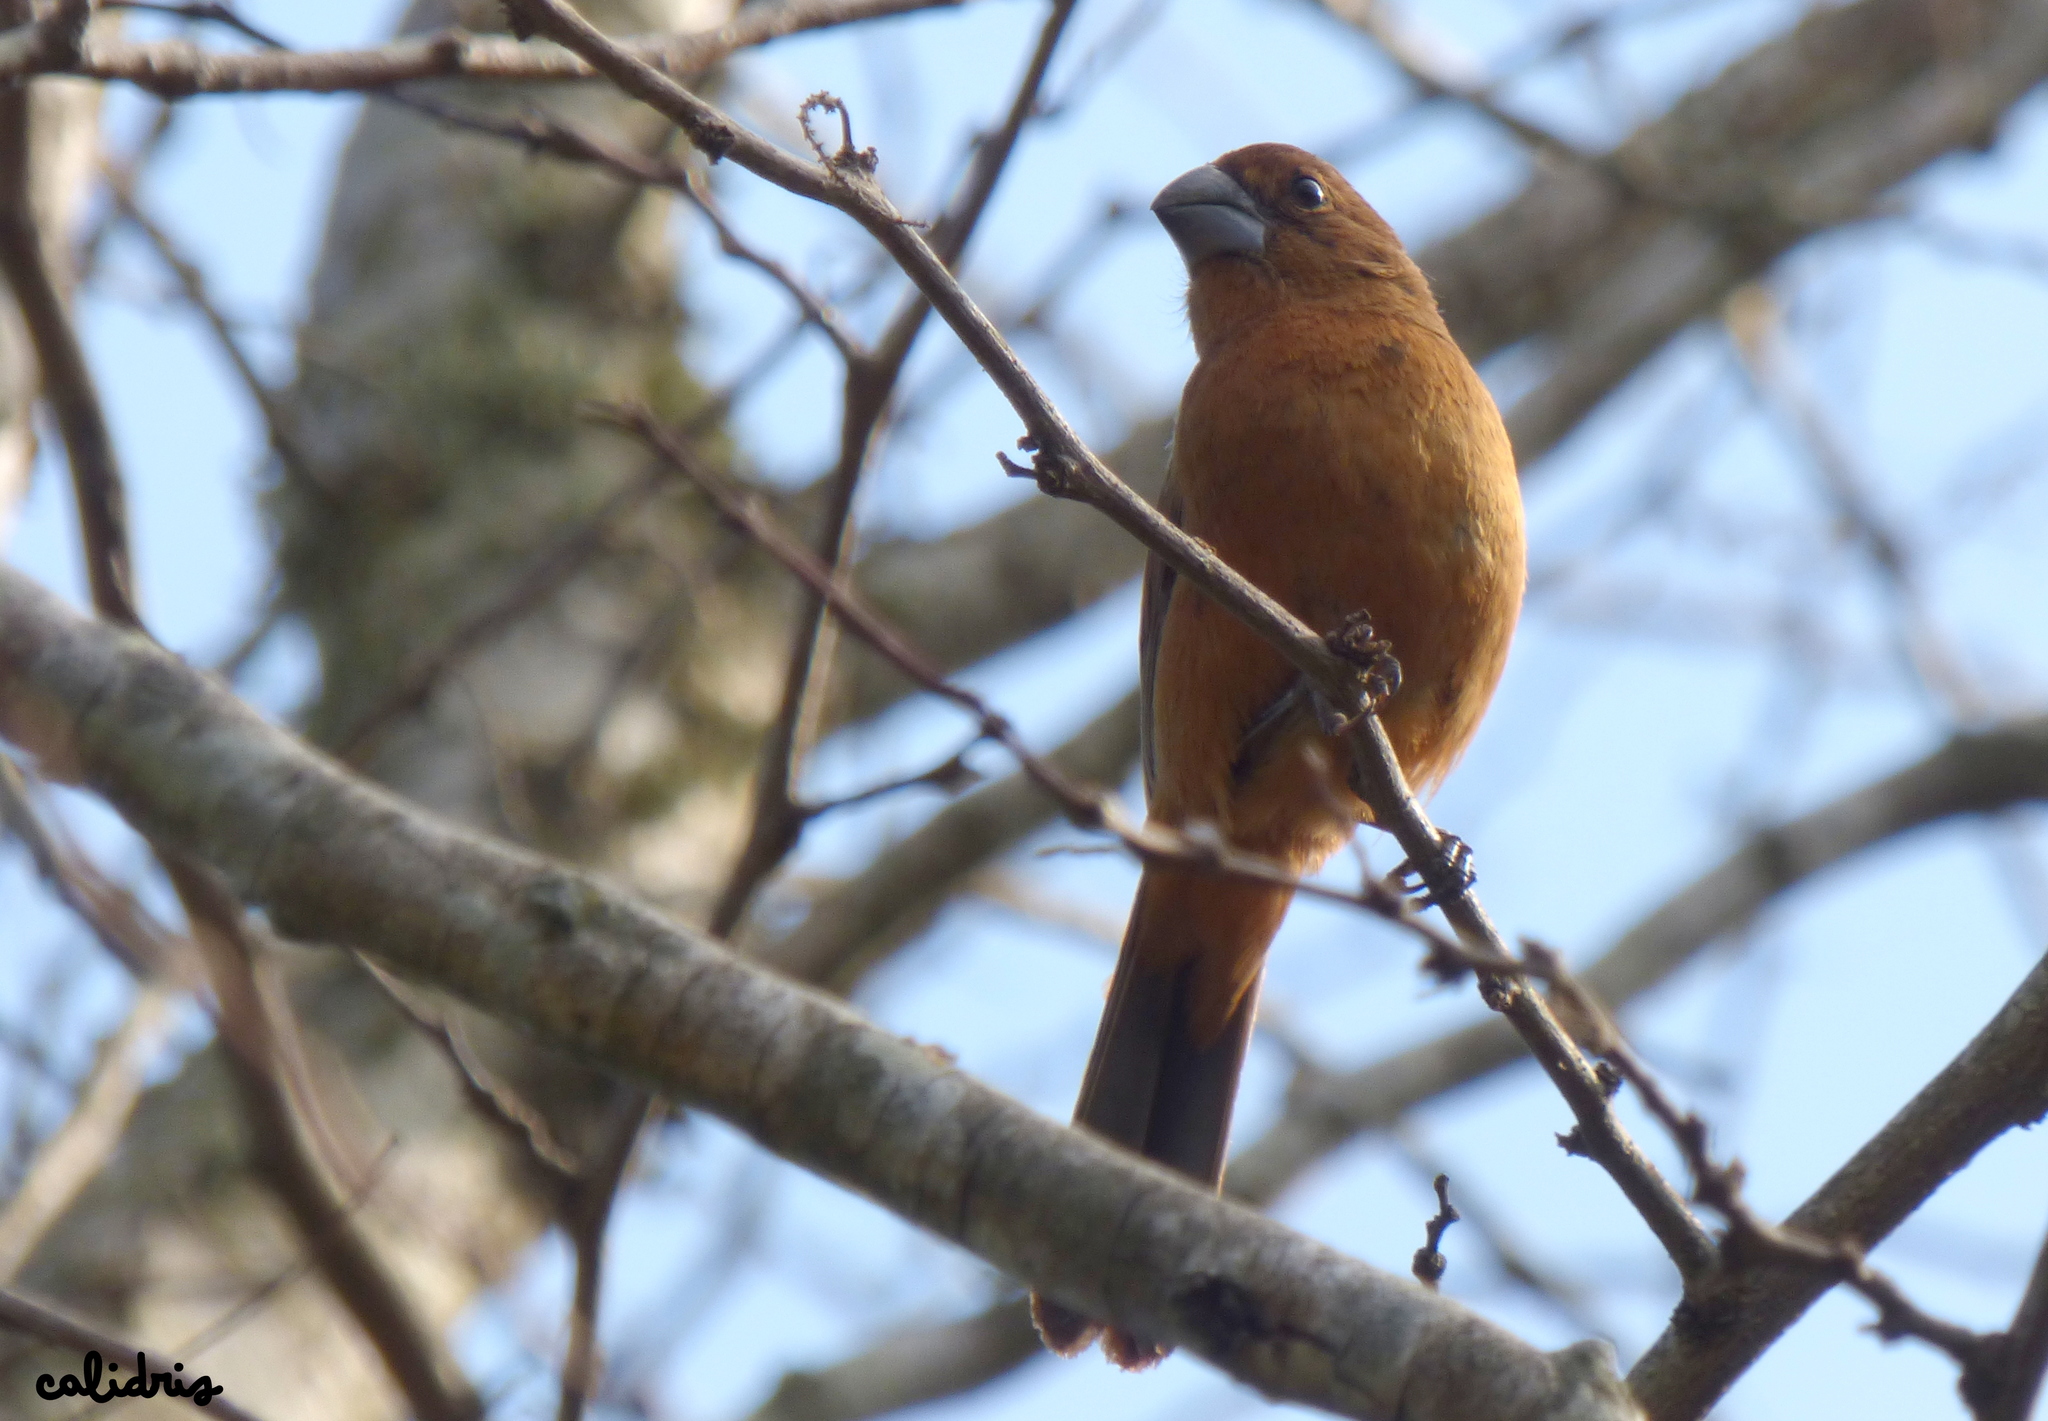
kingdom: Animalia
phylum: Chordata
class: Aves
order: Passeriformes
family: Cardinalidae
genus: Cyanoloxia
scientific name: Cyanoloxia brissonii
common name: Ultramarine grosbeak
